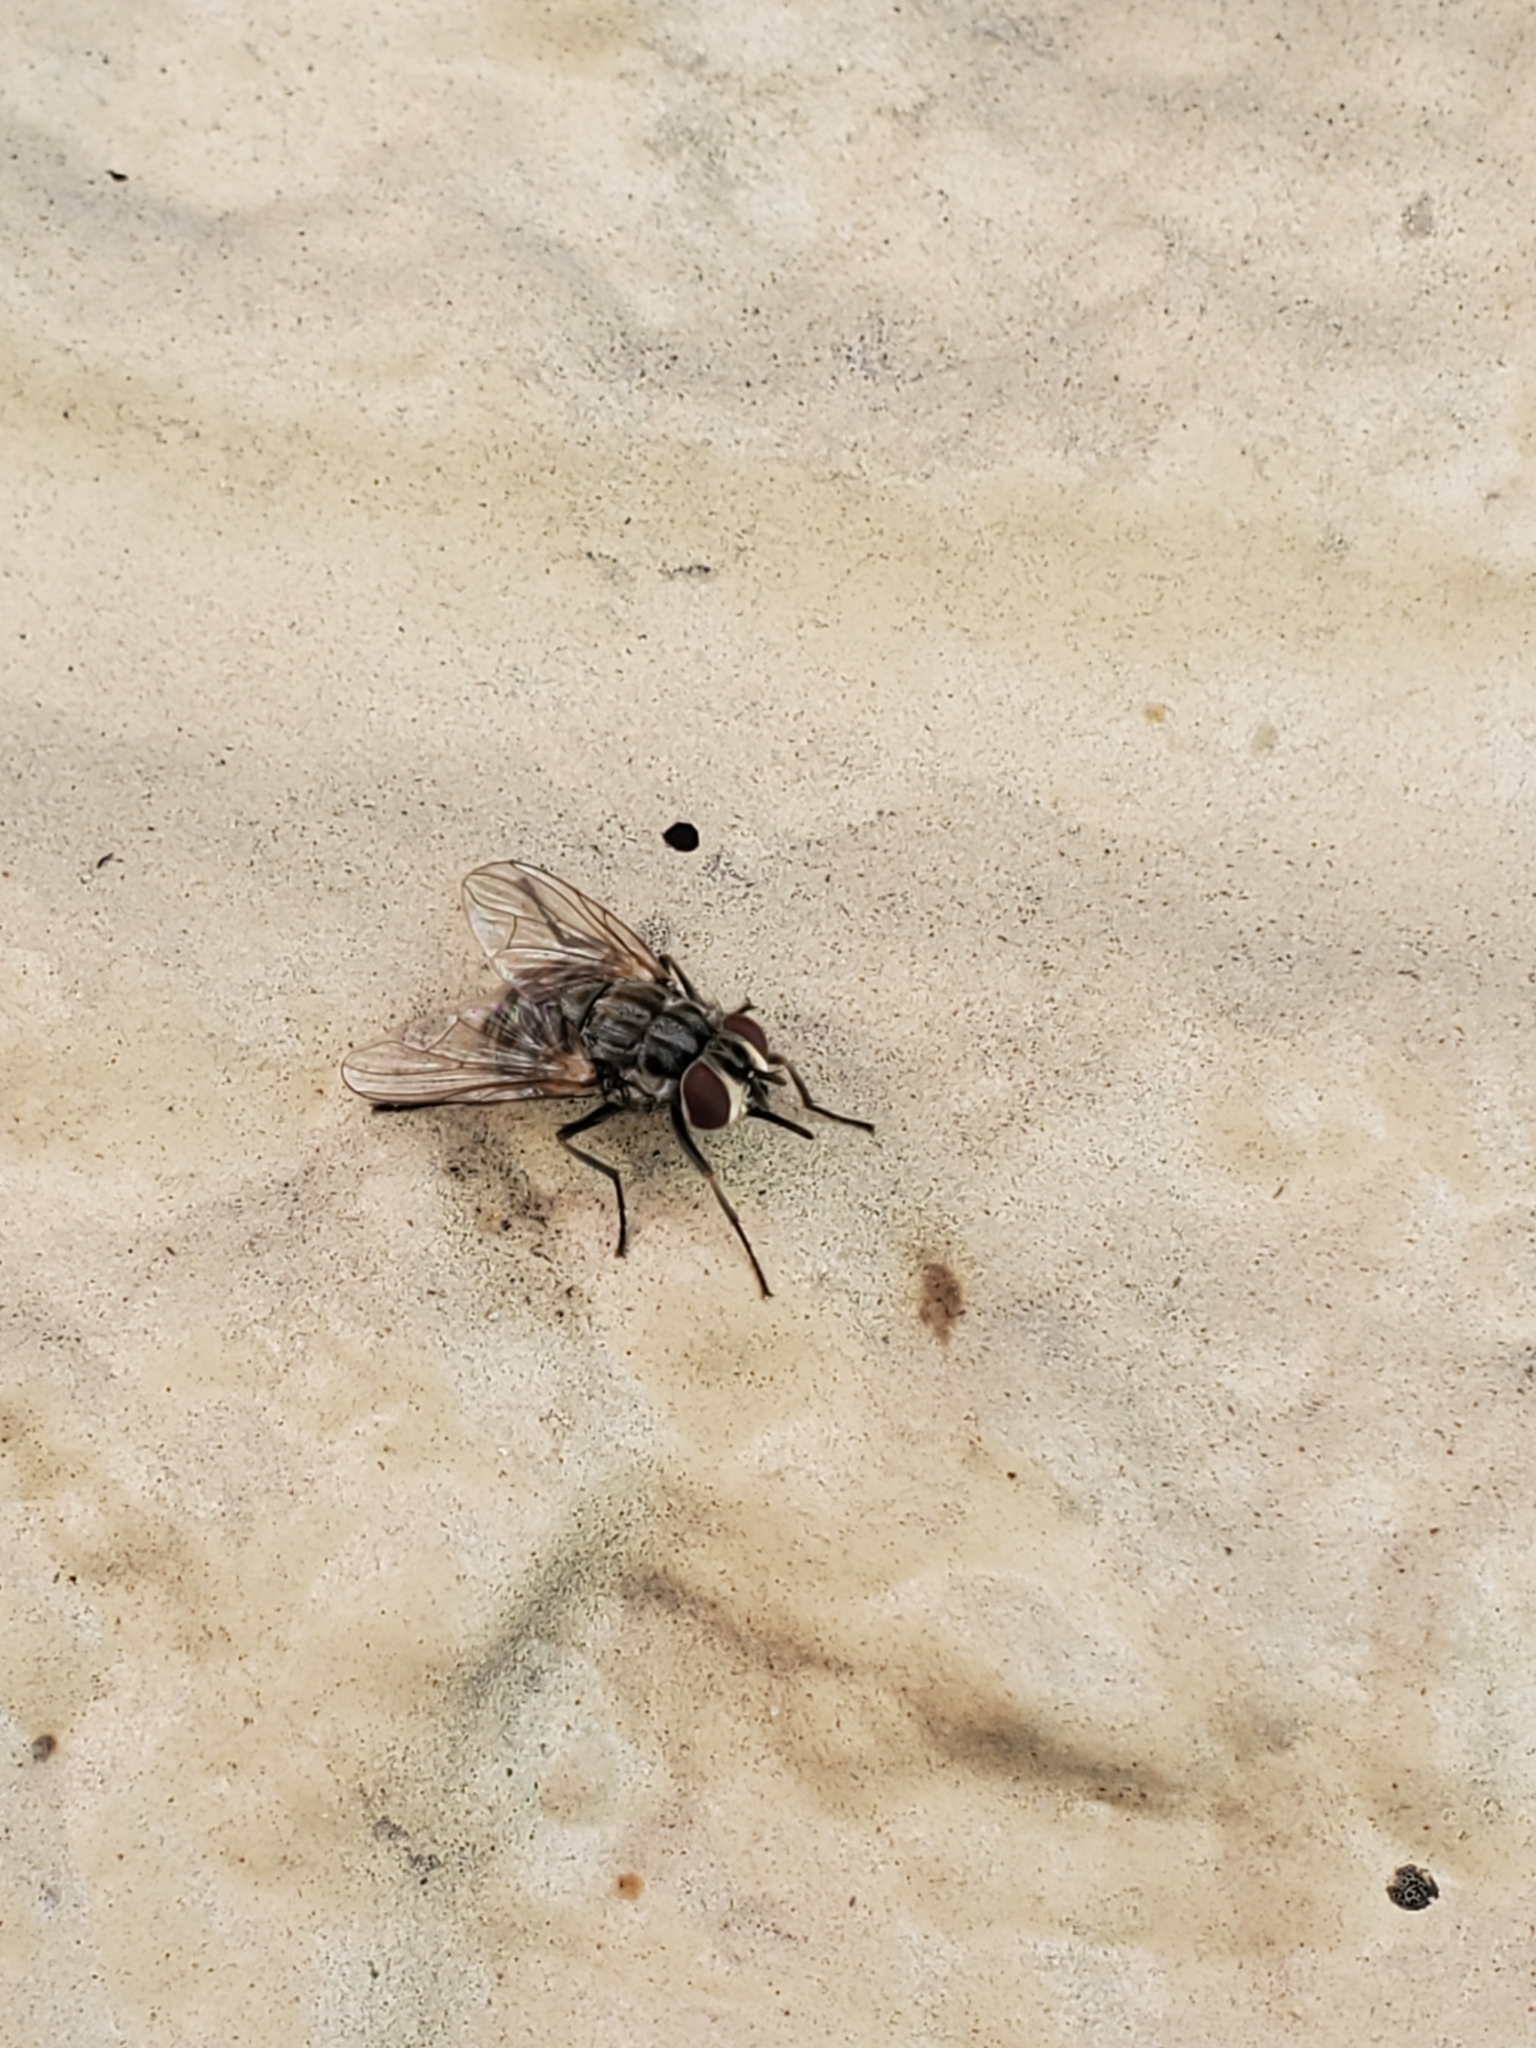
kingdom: Animalia
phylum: Arthropoda
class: Insecta
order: Diptera
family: Muscidae
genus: Stomoxys
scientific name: Stomoxys calcitrans
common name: Stable fly
